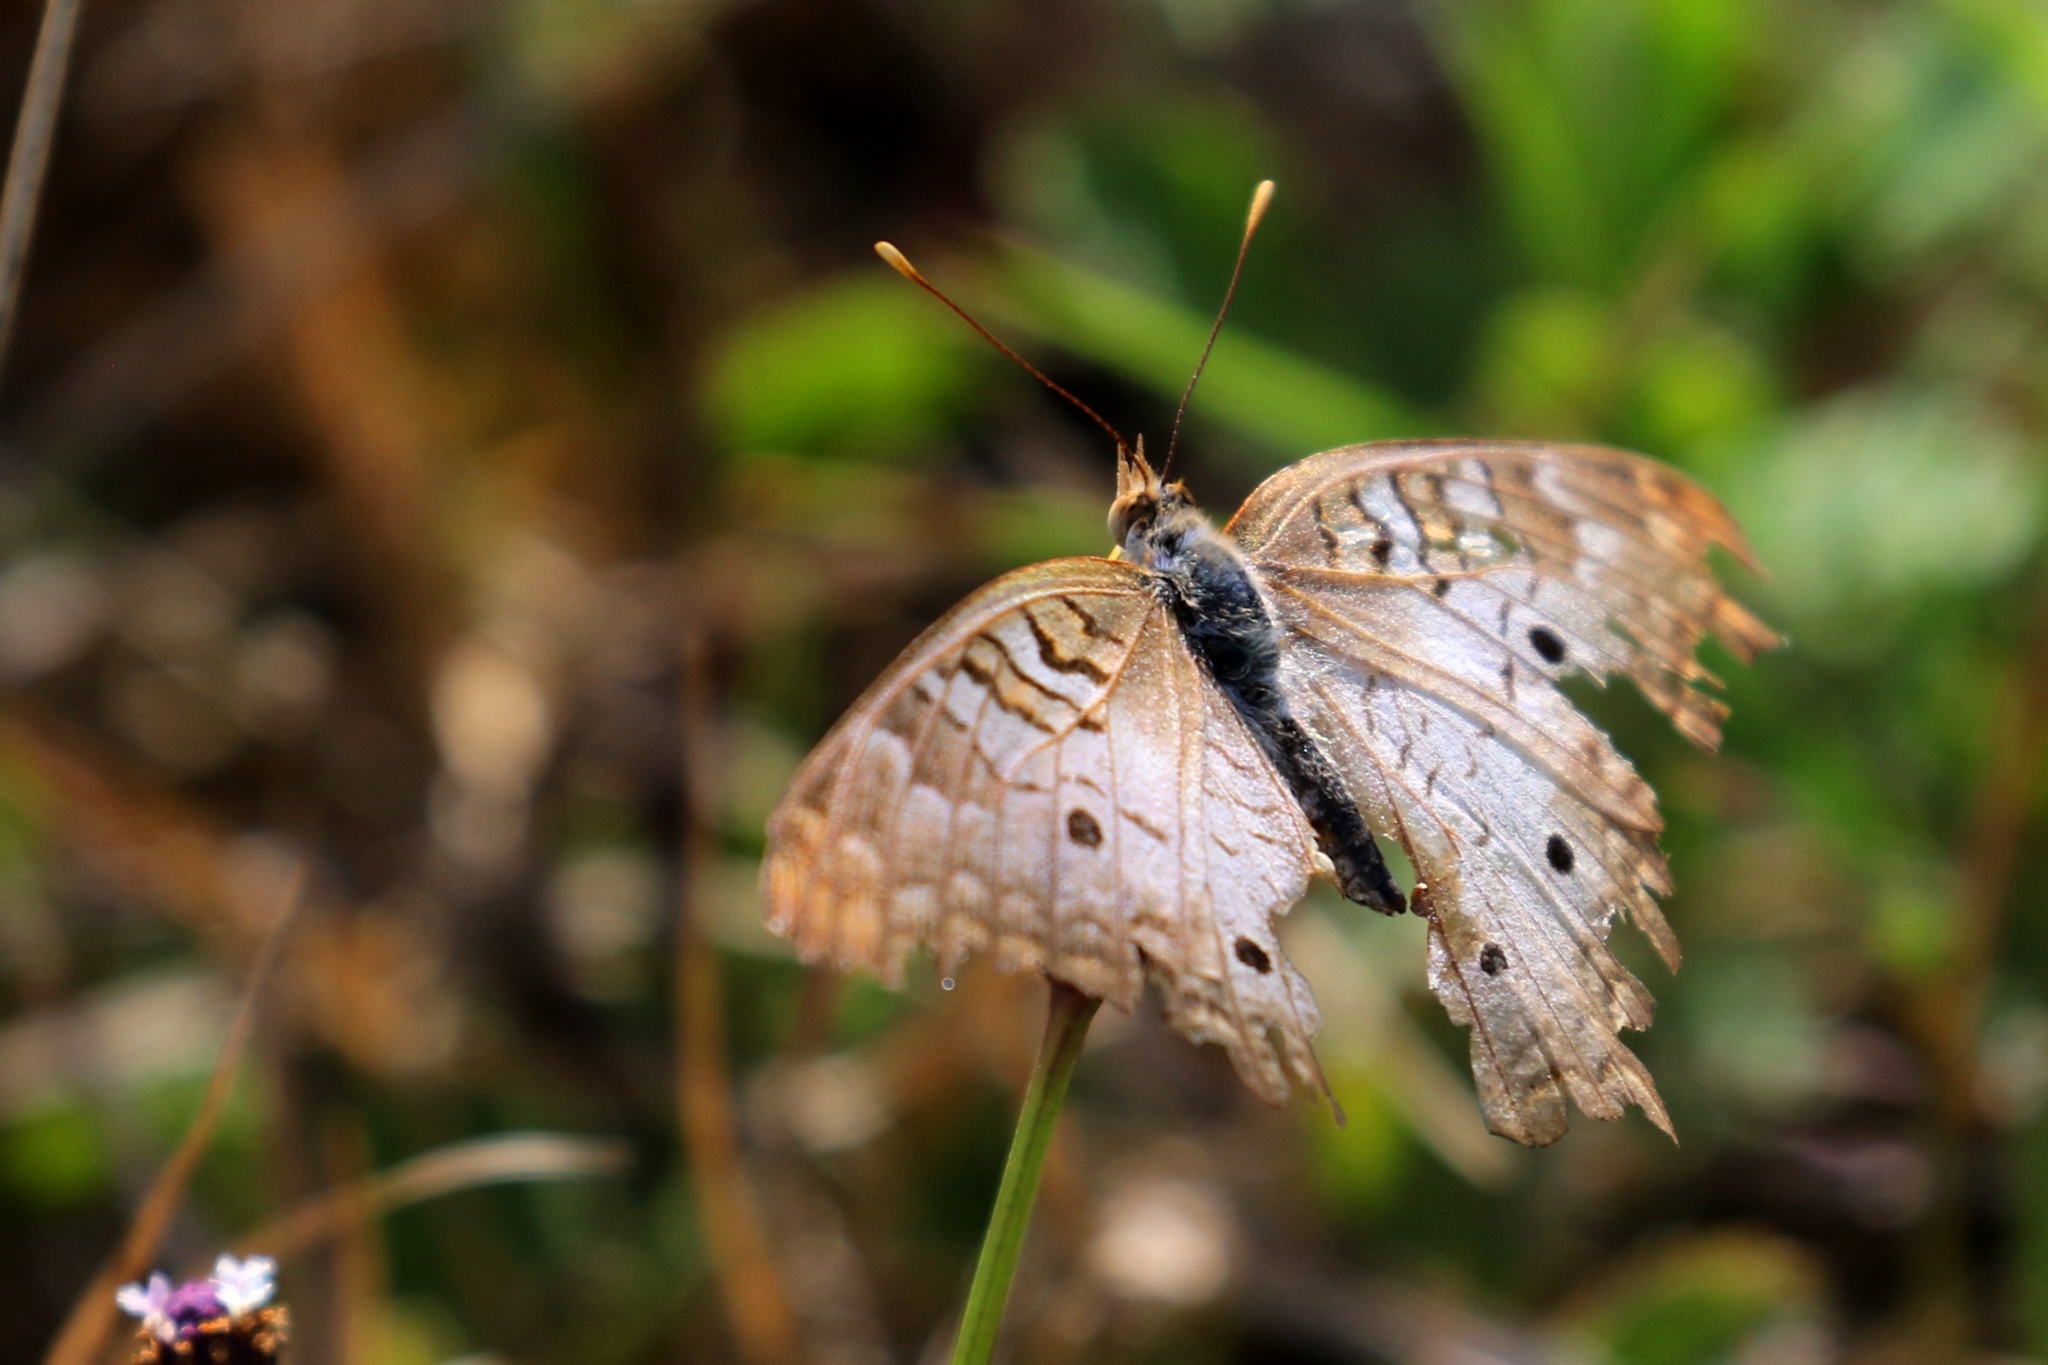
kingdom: Animalia
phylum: Arthropoda
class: Insecta
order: Lepidoptera
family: Nymphalidae
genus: Anartia
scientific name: Anartia jatrophae
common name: White peacock
